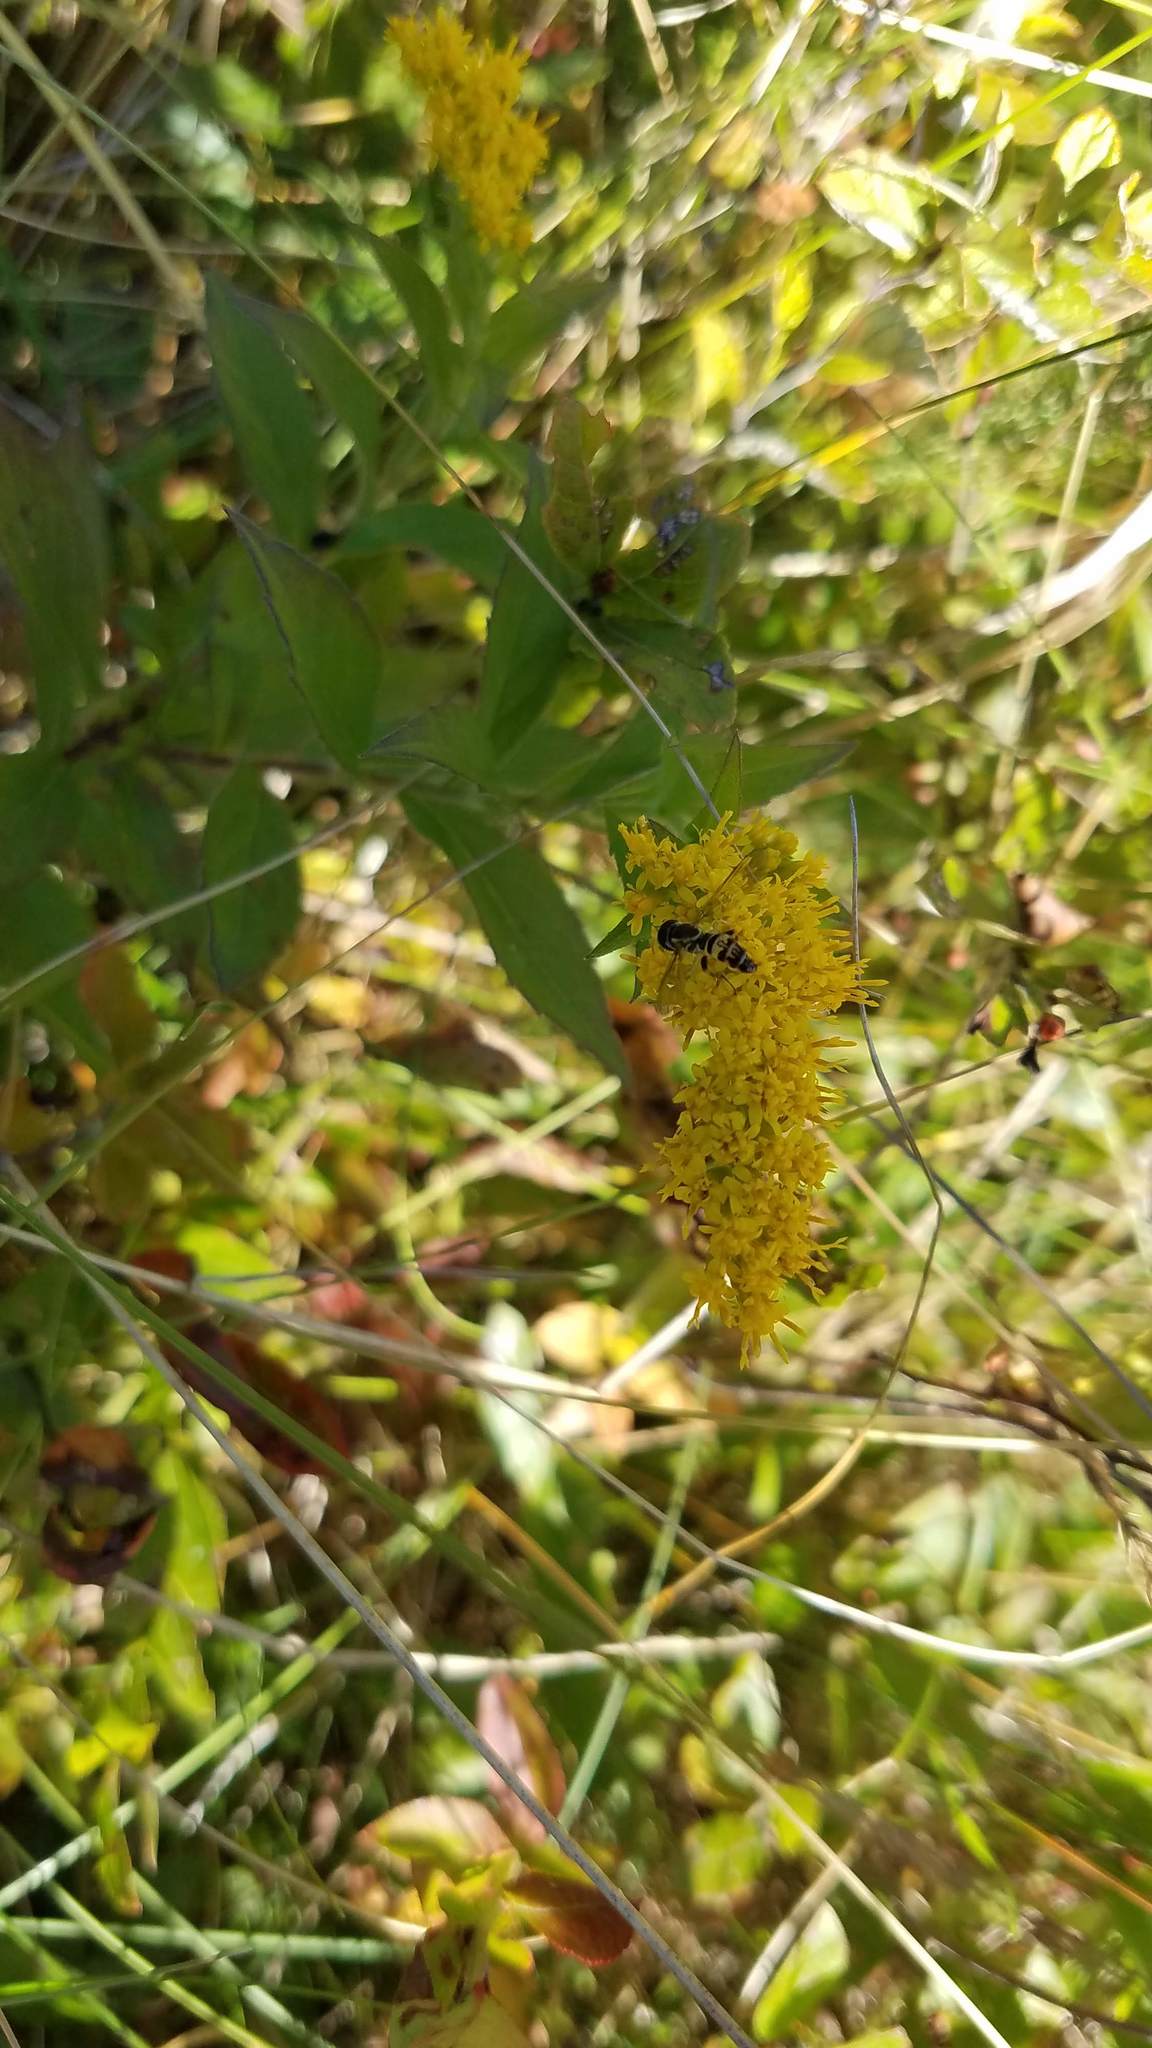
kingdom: Animalia
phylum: Arthropoda
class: Insecta
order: Diptera
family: Syrphidae
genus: Toxomerus
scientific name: Toxomerus geminatus
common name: Eastern calligrapher
